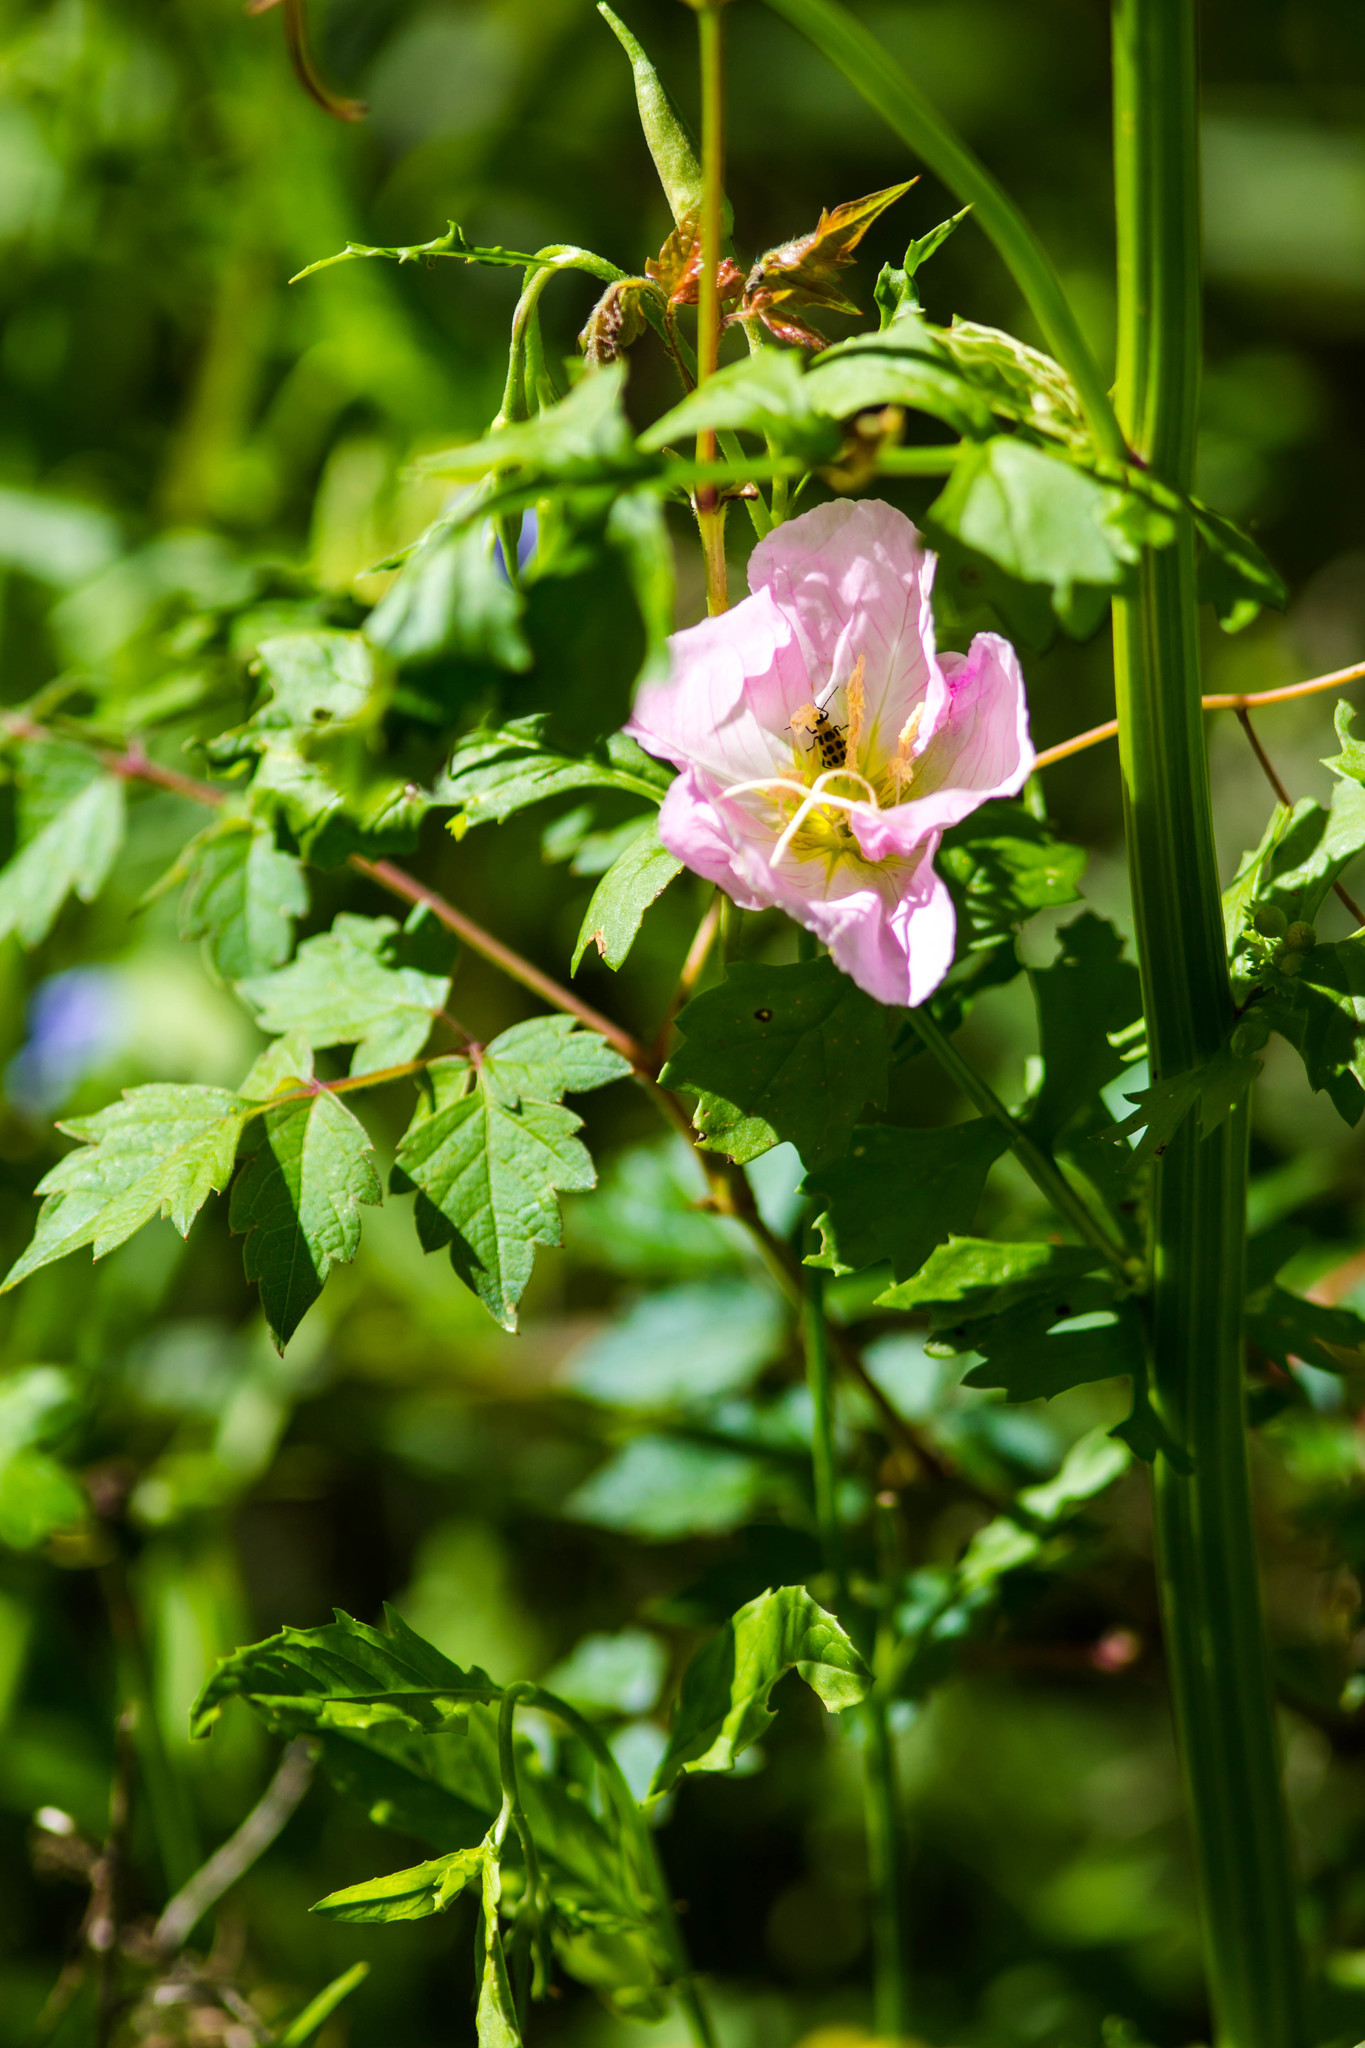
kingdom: Plantae
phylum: Tracheophyta
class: Magnoliopsida
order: Myrtales
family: Onagraceae
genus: Oenothera
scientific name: Oenothera speciosa
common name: White evening-primrose
